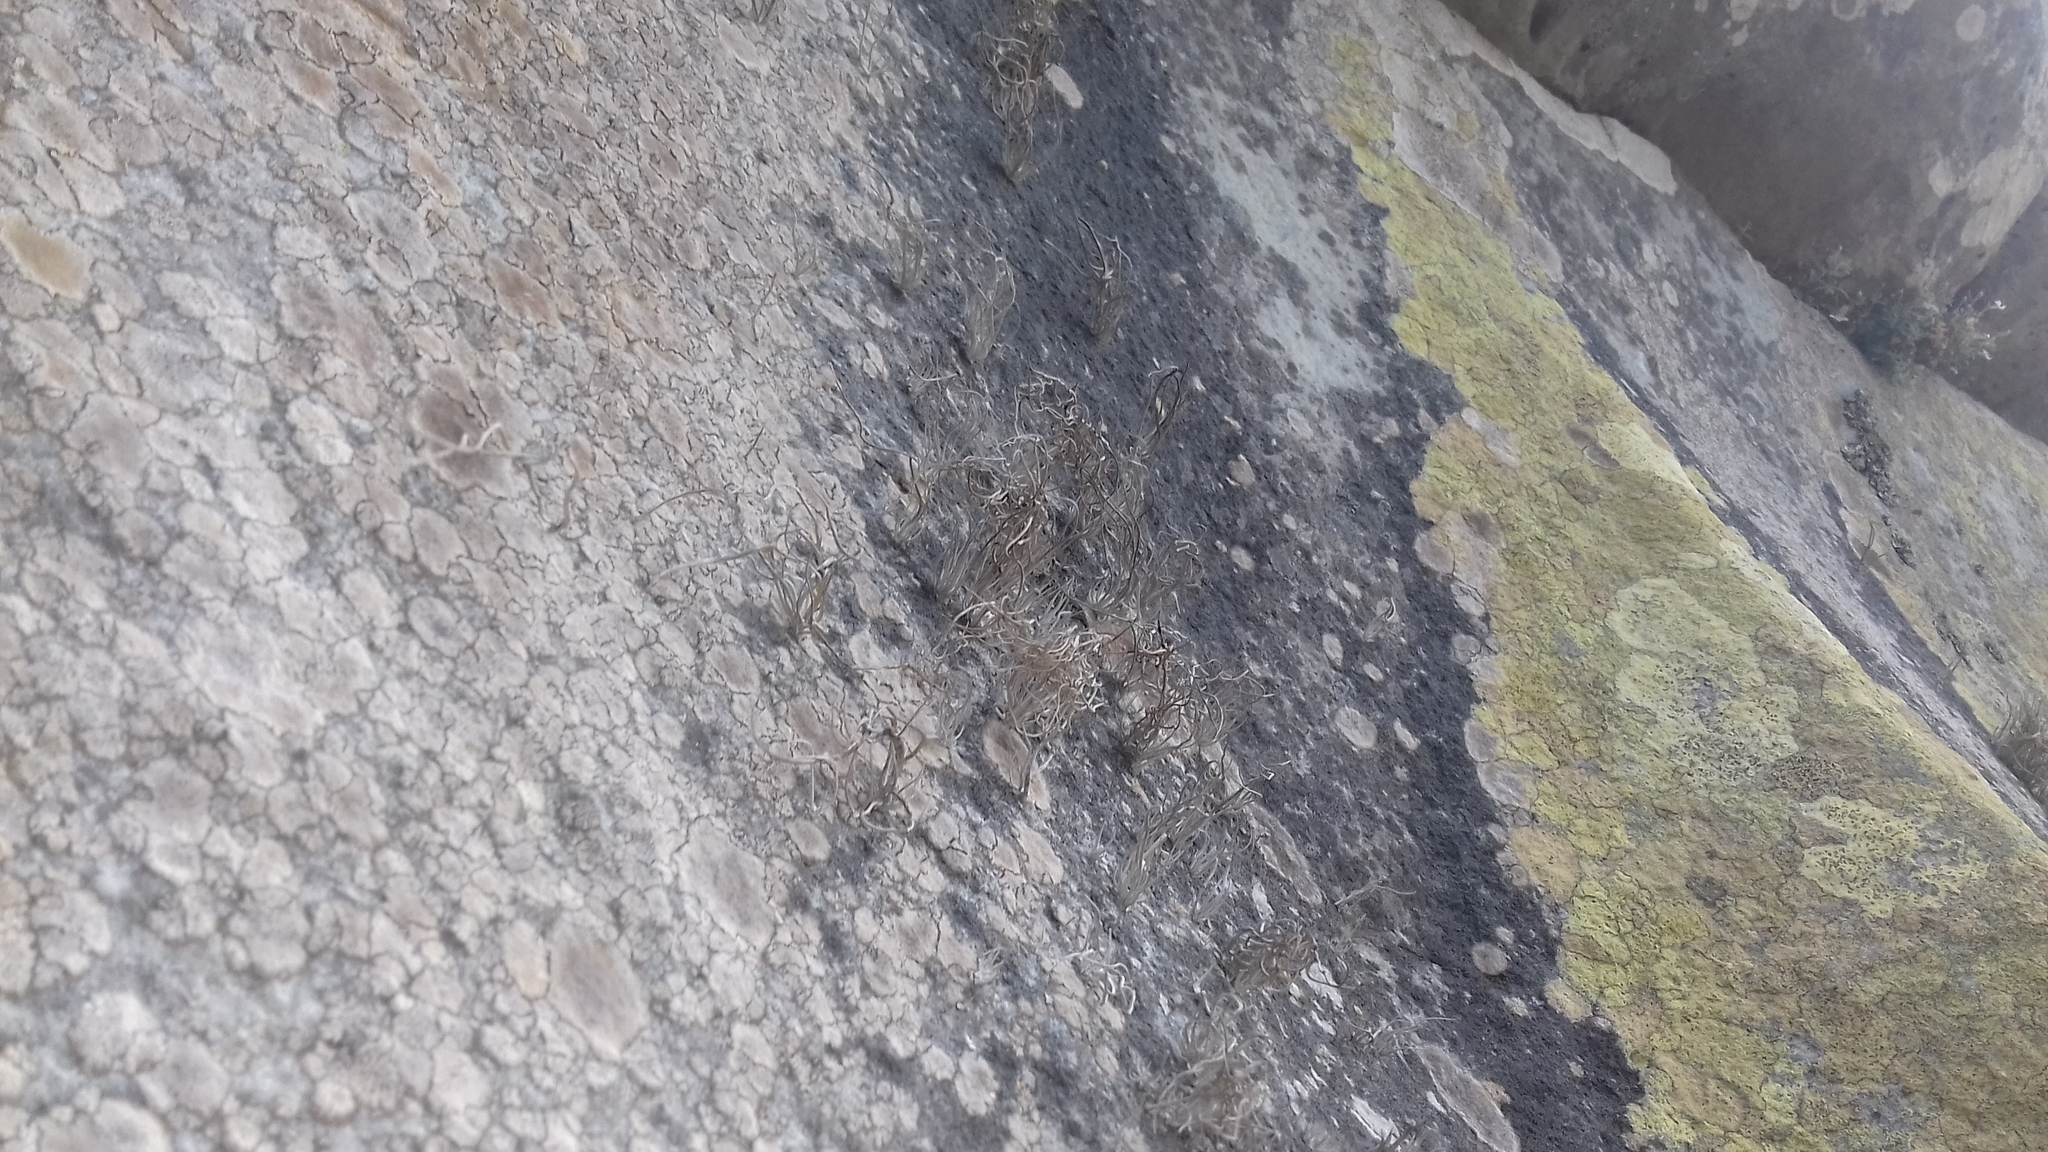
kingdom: Fungi
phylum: Ascomycota
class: Arthoniomycetes
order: Arthoniales
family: Roccellaceae
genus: Roccellina
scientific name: Roccellina hypomecha
